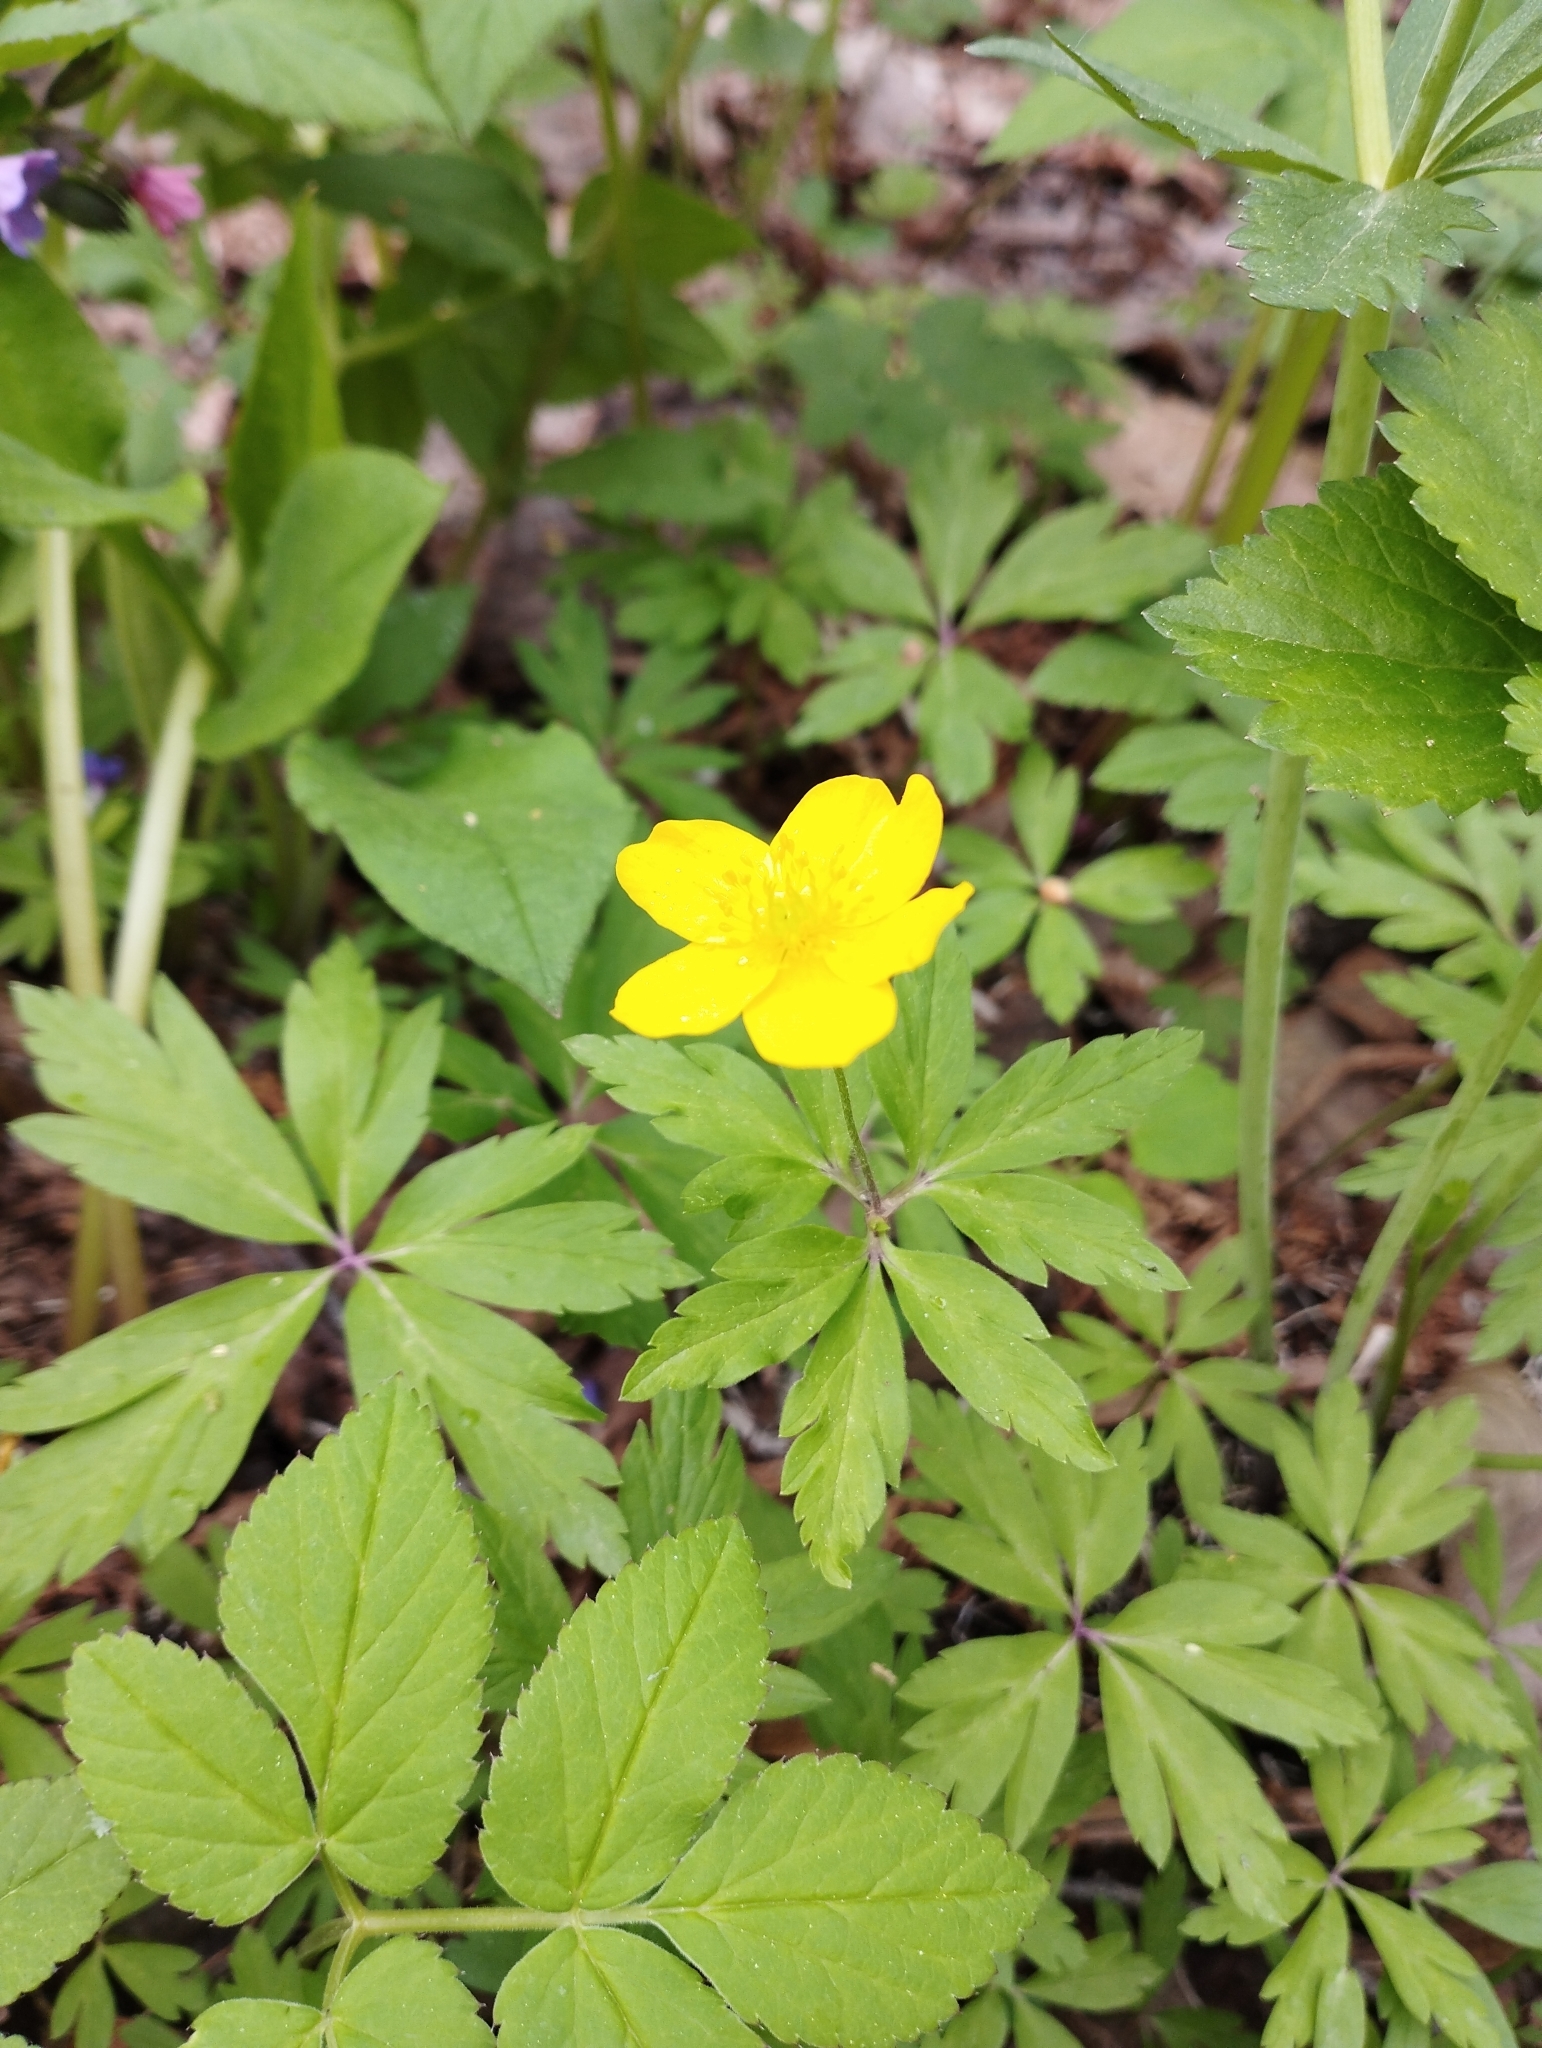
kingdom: Plantae
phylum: Tracheophyta
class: Magnoliopsida
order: Ranunculales
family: Ranunculaceae
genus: Anemone
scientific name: Anemone ranunculoides
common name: Yellow anemone
